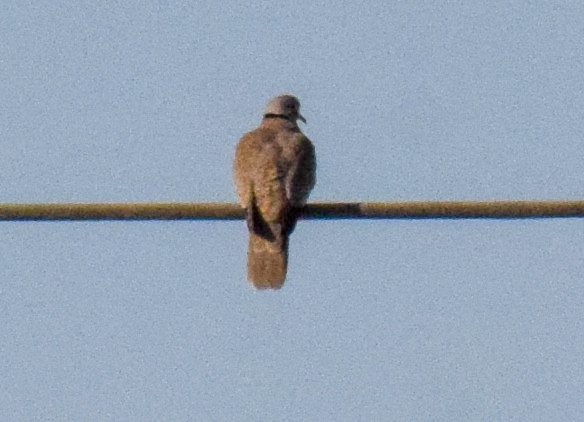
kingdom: Animalia
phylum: Chordata
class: Aves
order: Columbiformes
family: Columbidae
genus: Streptopelia
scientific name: Streptopelia decaocto
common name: Eurasian collared dove
